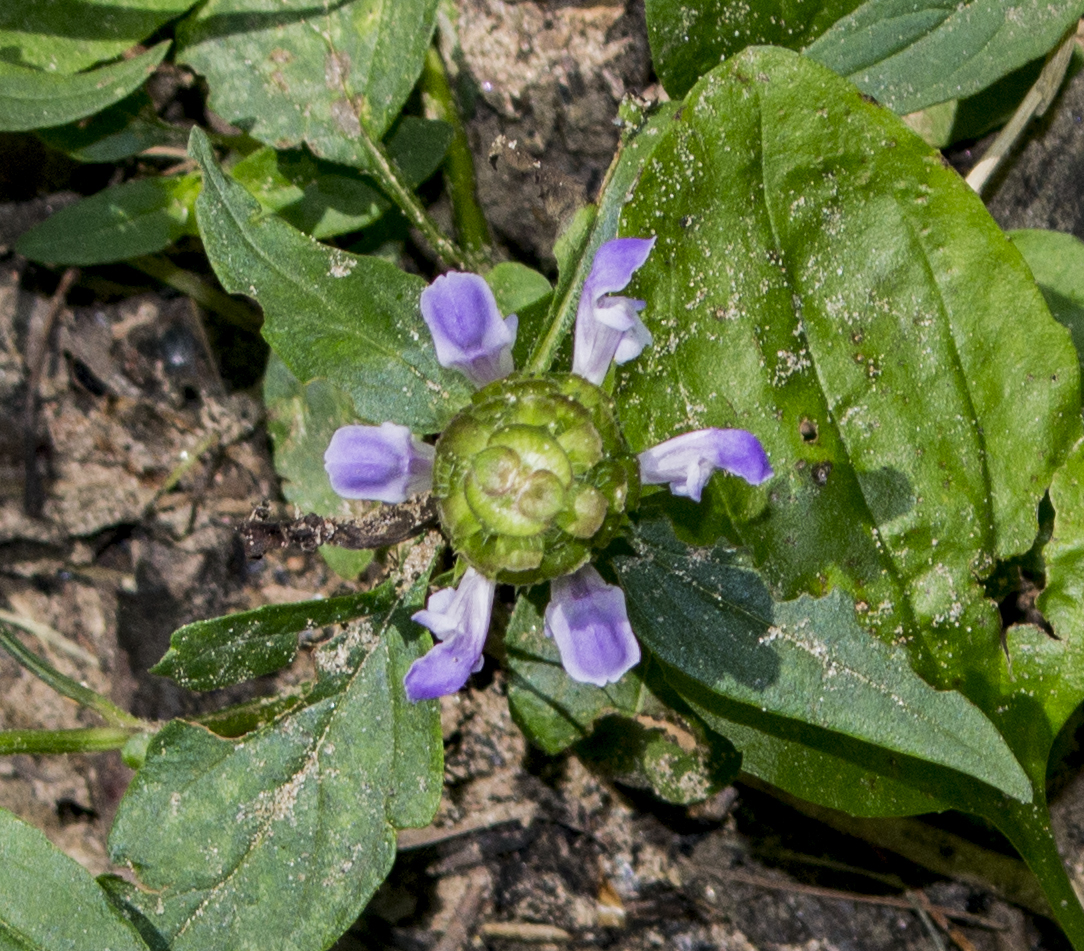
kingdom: Plantae
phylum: Tracheophyta
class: Magnoliopsida
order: Lamiales
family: Lamiaceae
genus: Prunella
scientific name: Prunella vulgaris
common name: Heal-all
